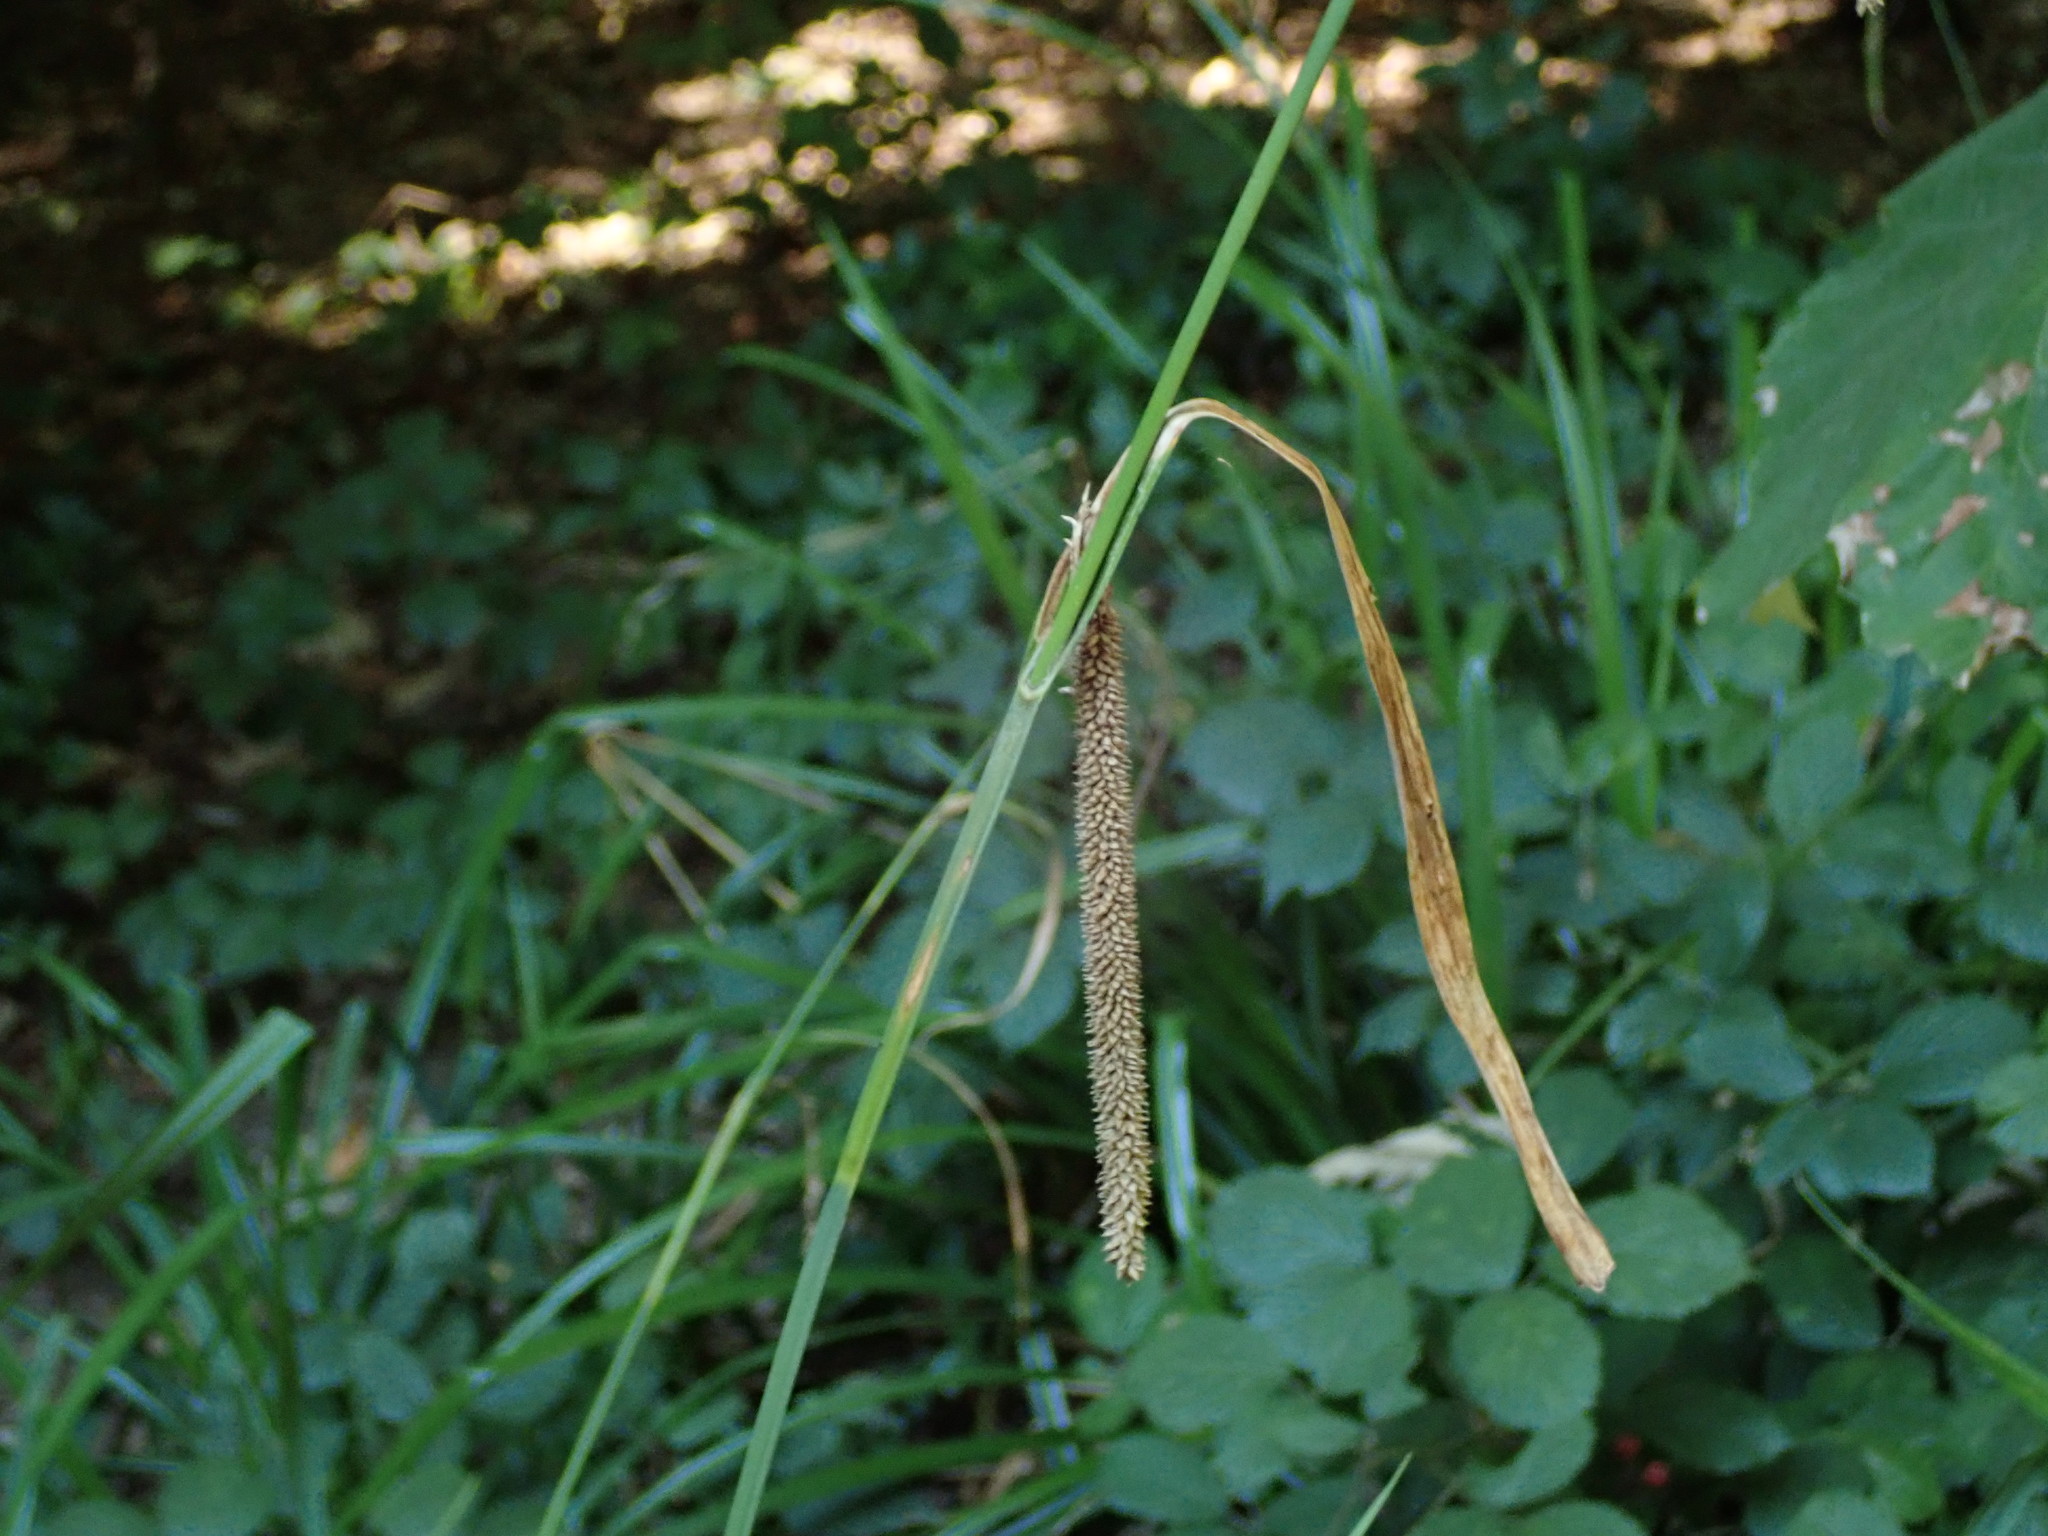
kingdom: Plantae
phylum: Tracheophyta
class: Liliopsida
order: Poales
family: Cyperaceae
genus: Carex
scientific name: Carex pendula
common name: Pendulous sedge
